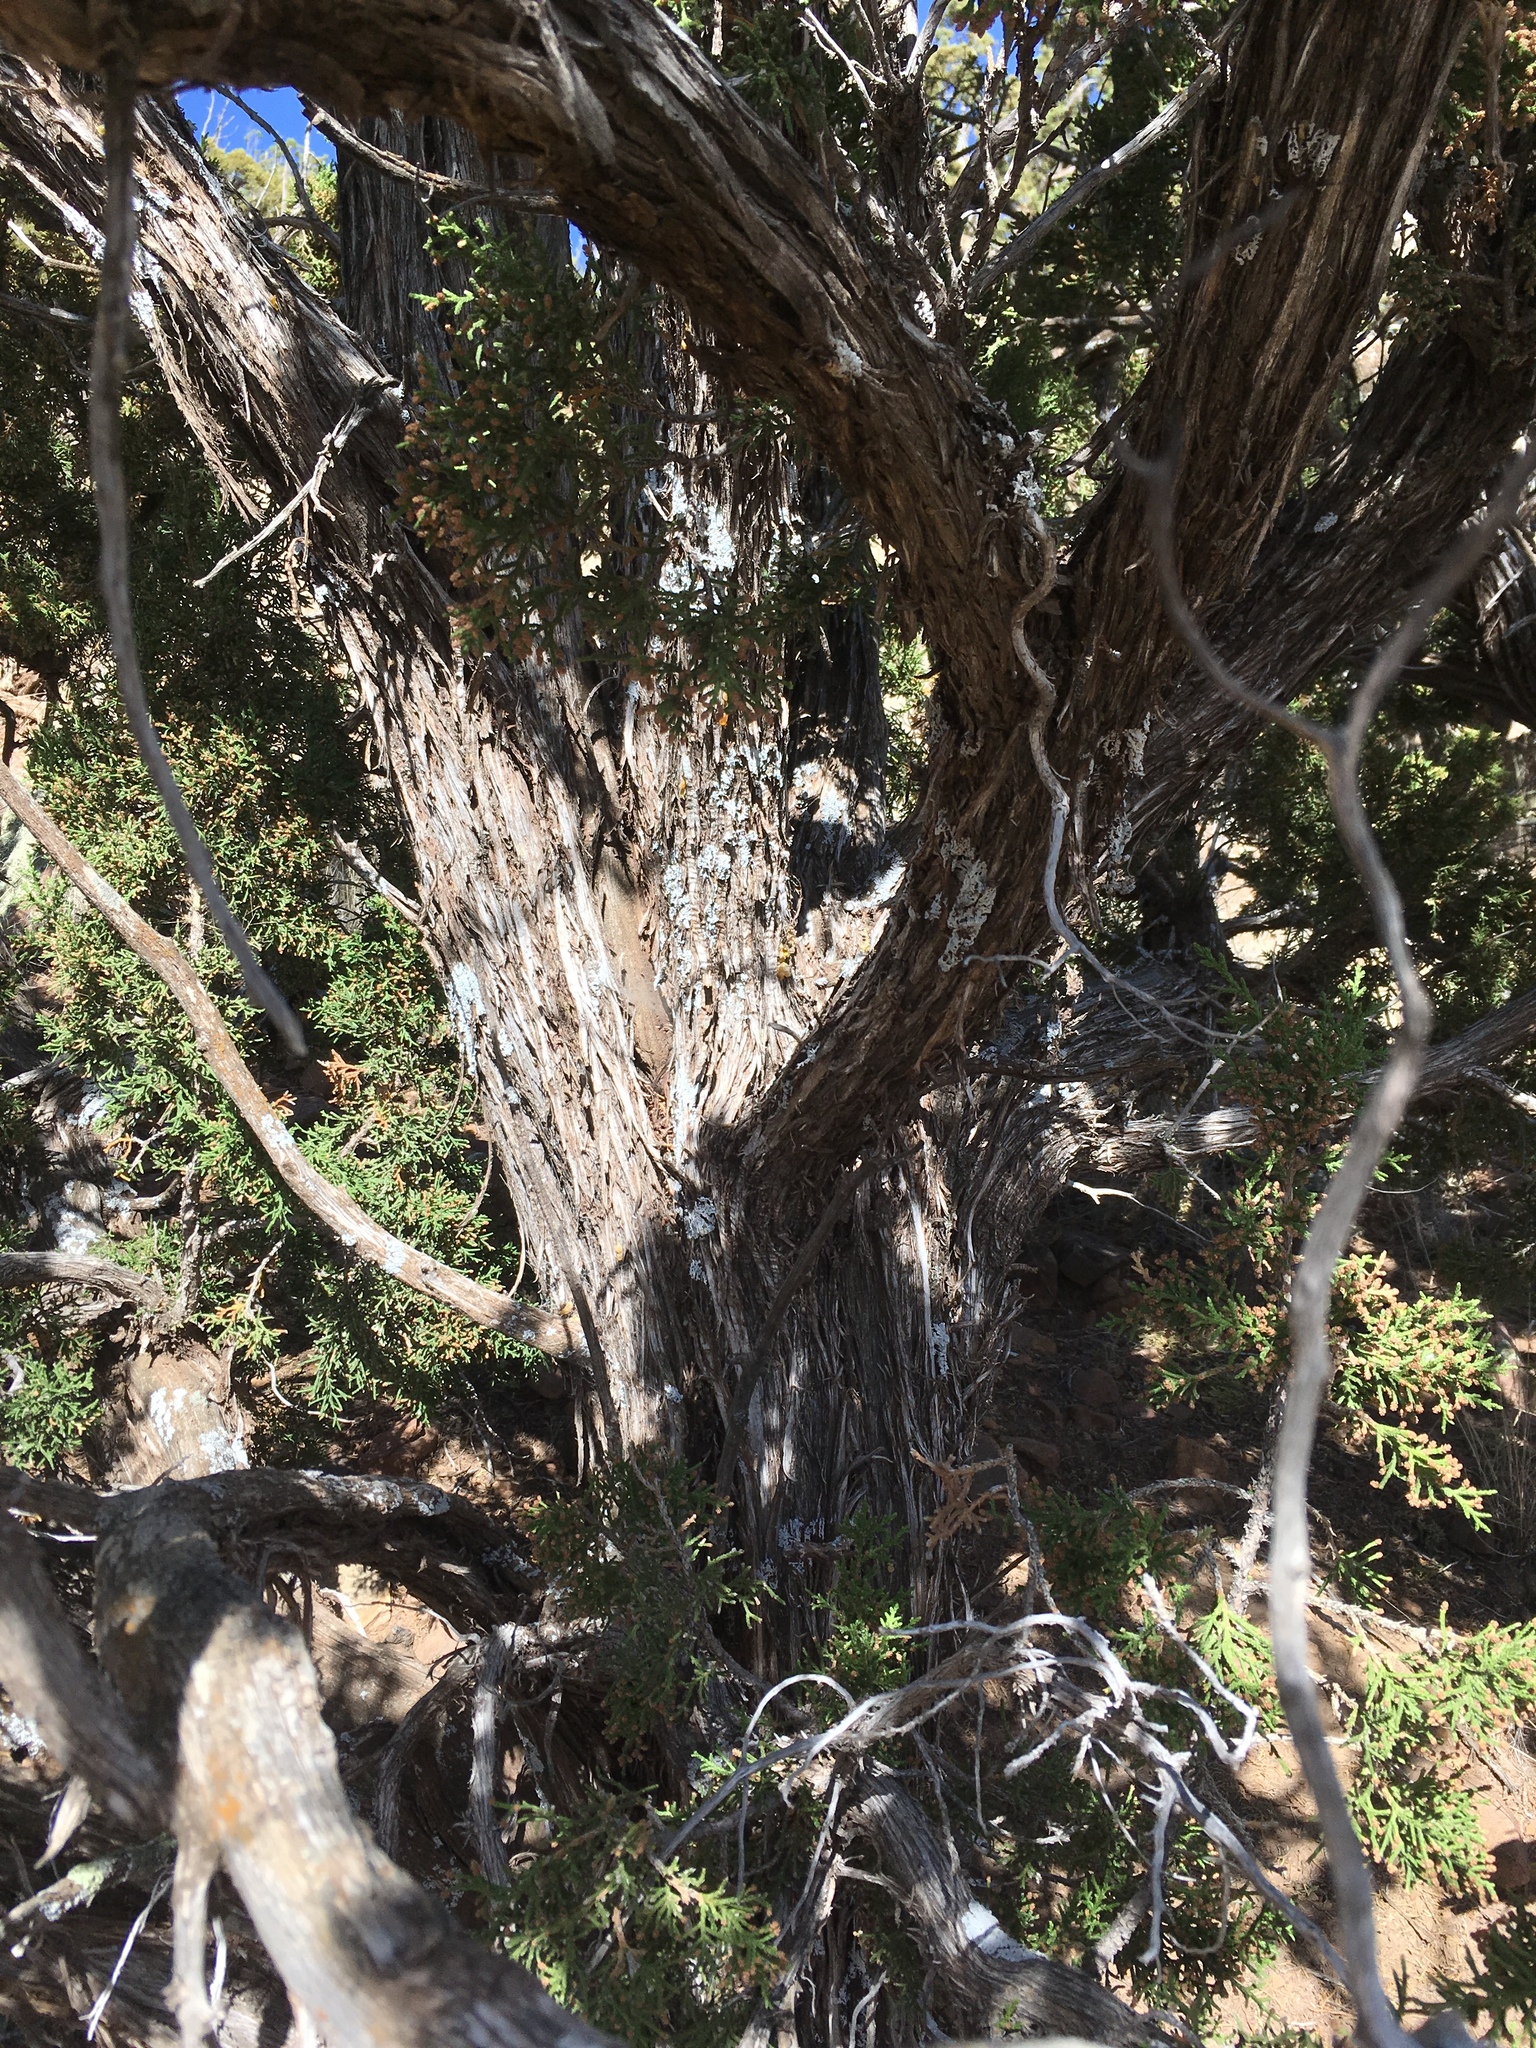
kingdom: Plantae
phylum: Tracheophyta
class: Pinopsida
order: Pinales
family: Cupressaceae
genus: Juniperus
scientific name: Juniperus monosperma
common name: One-seed juniper
